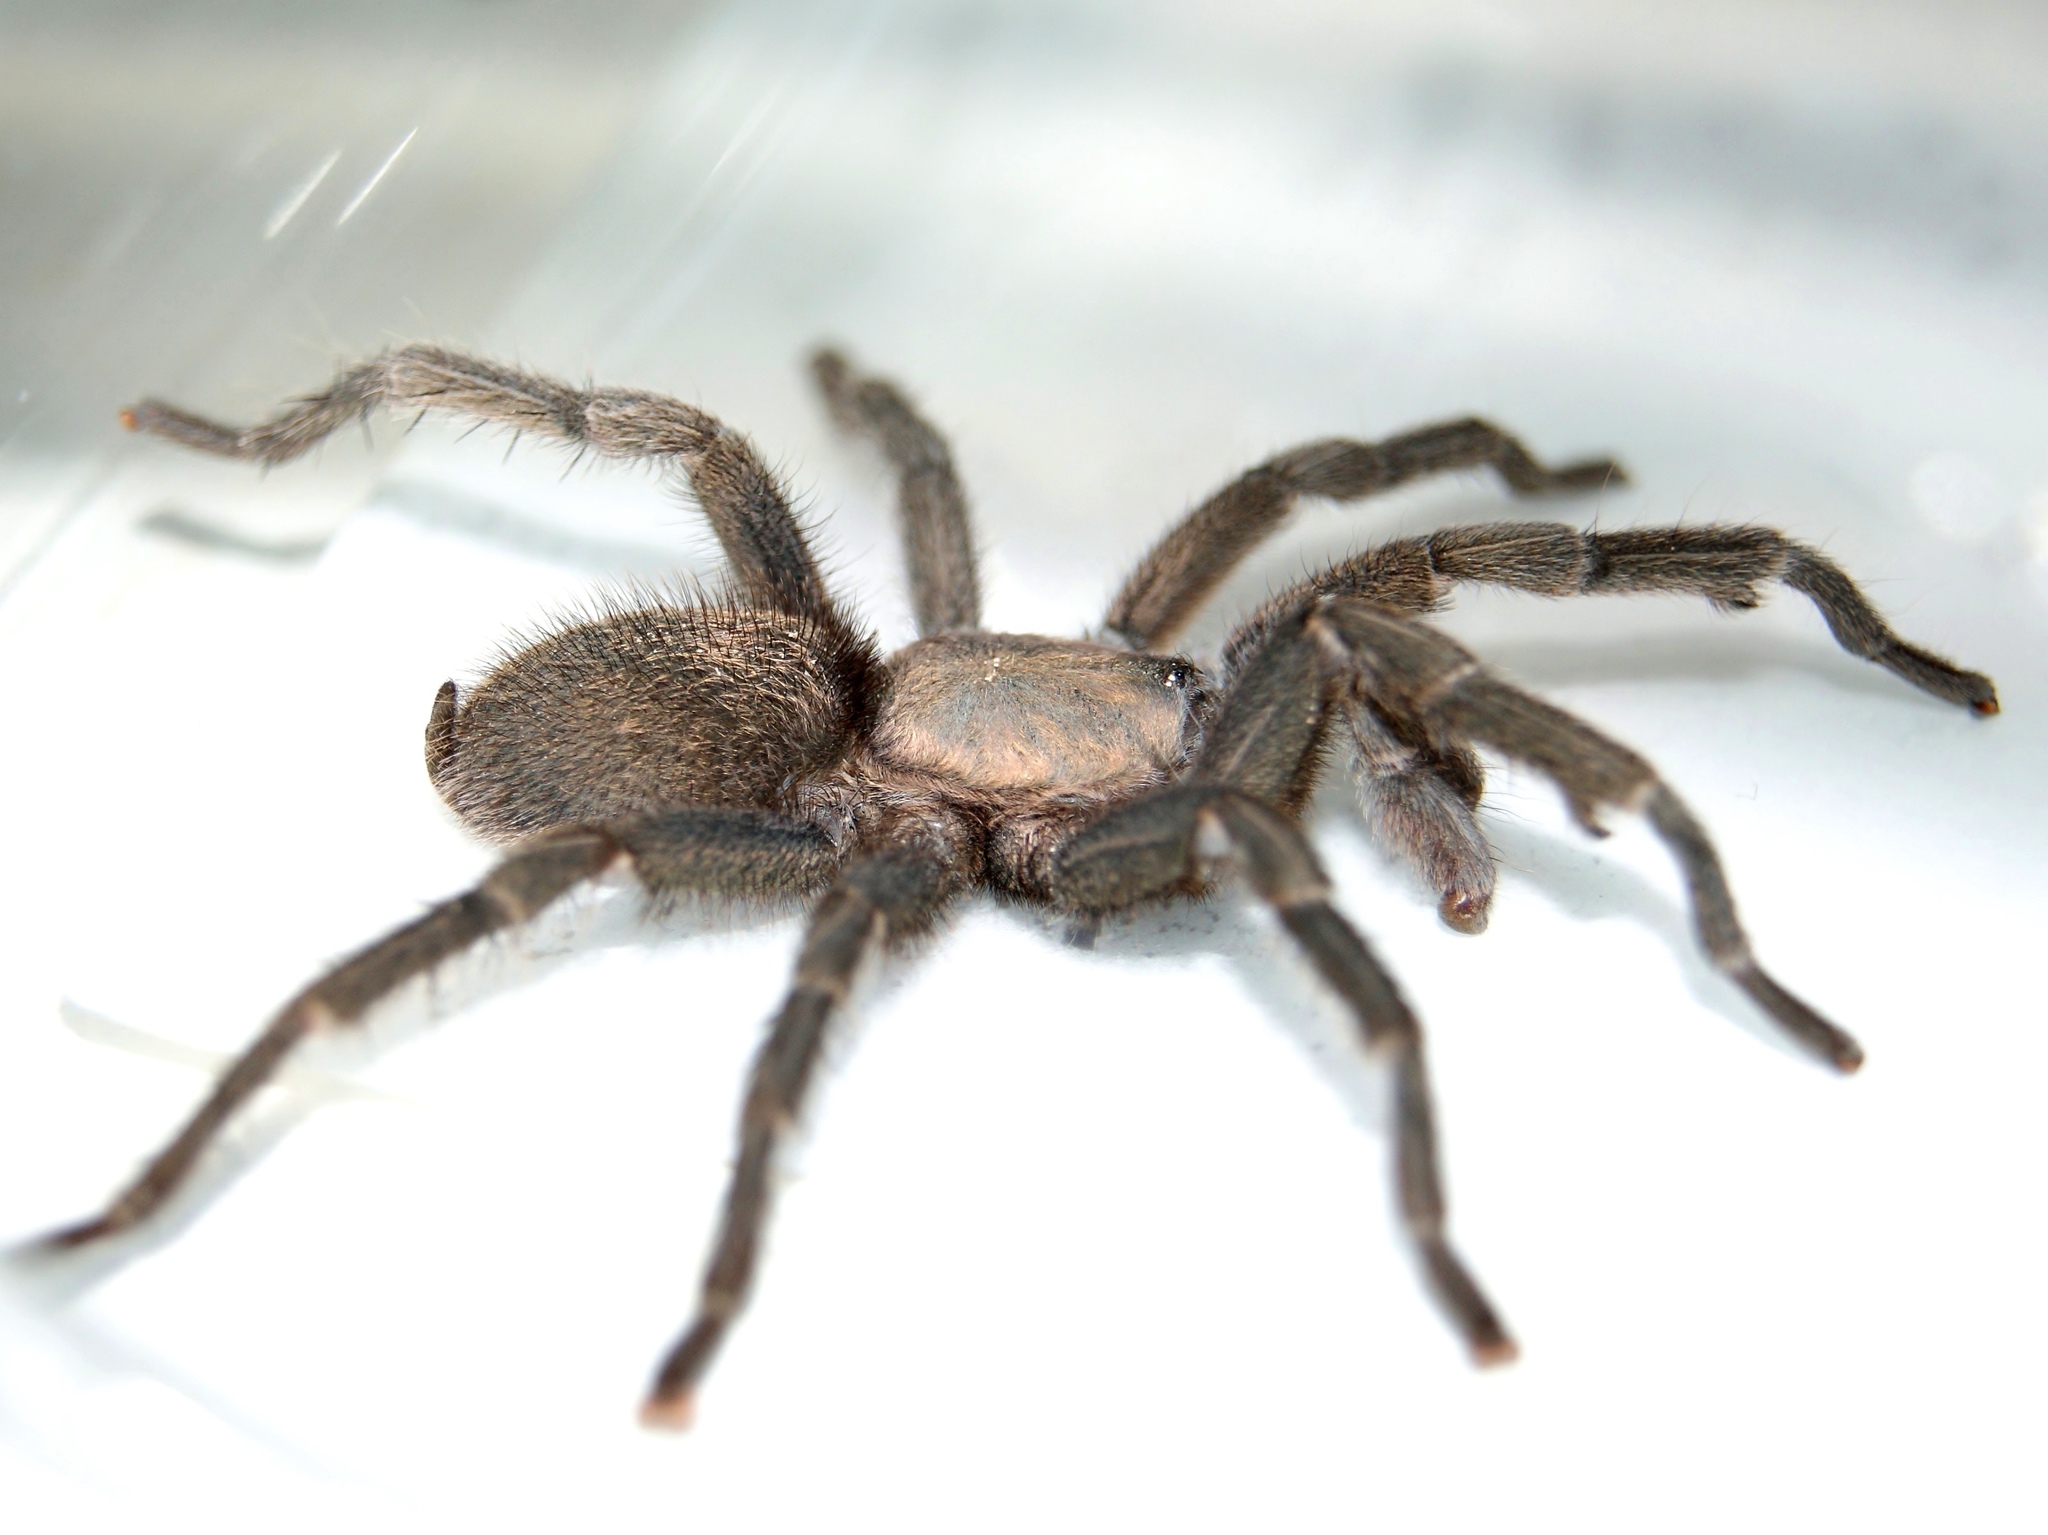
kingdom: Animalia
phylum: Arthropoda
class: Arachnida
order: Araneae
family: Theraphosidae
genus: Chaetopelma
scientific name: Chaetopelma olivaceum
